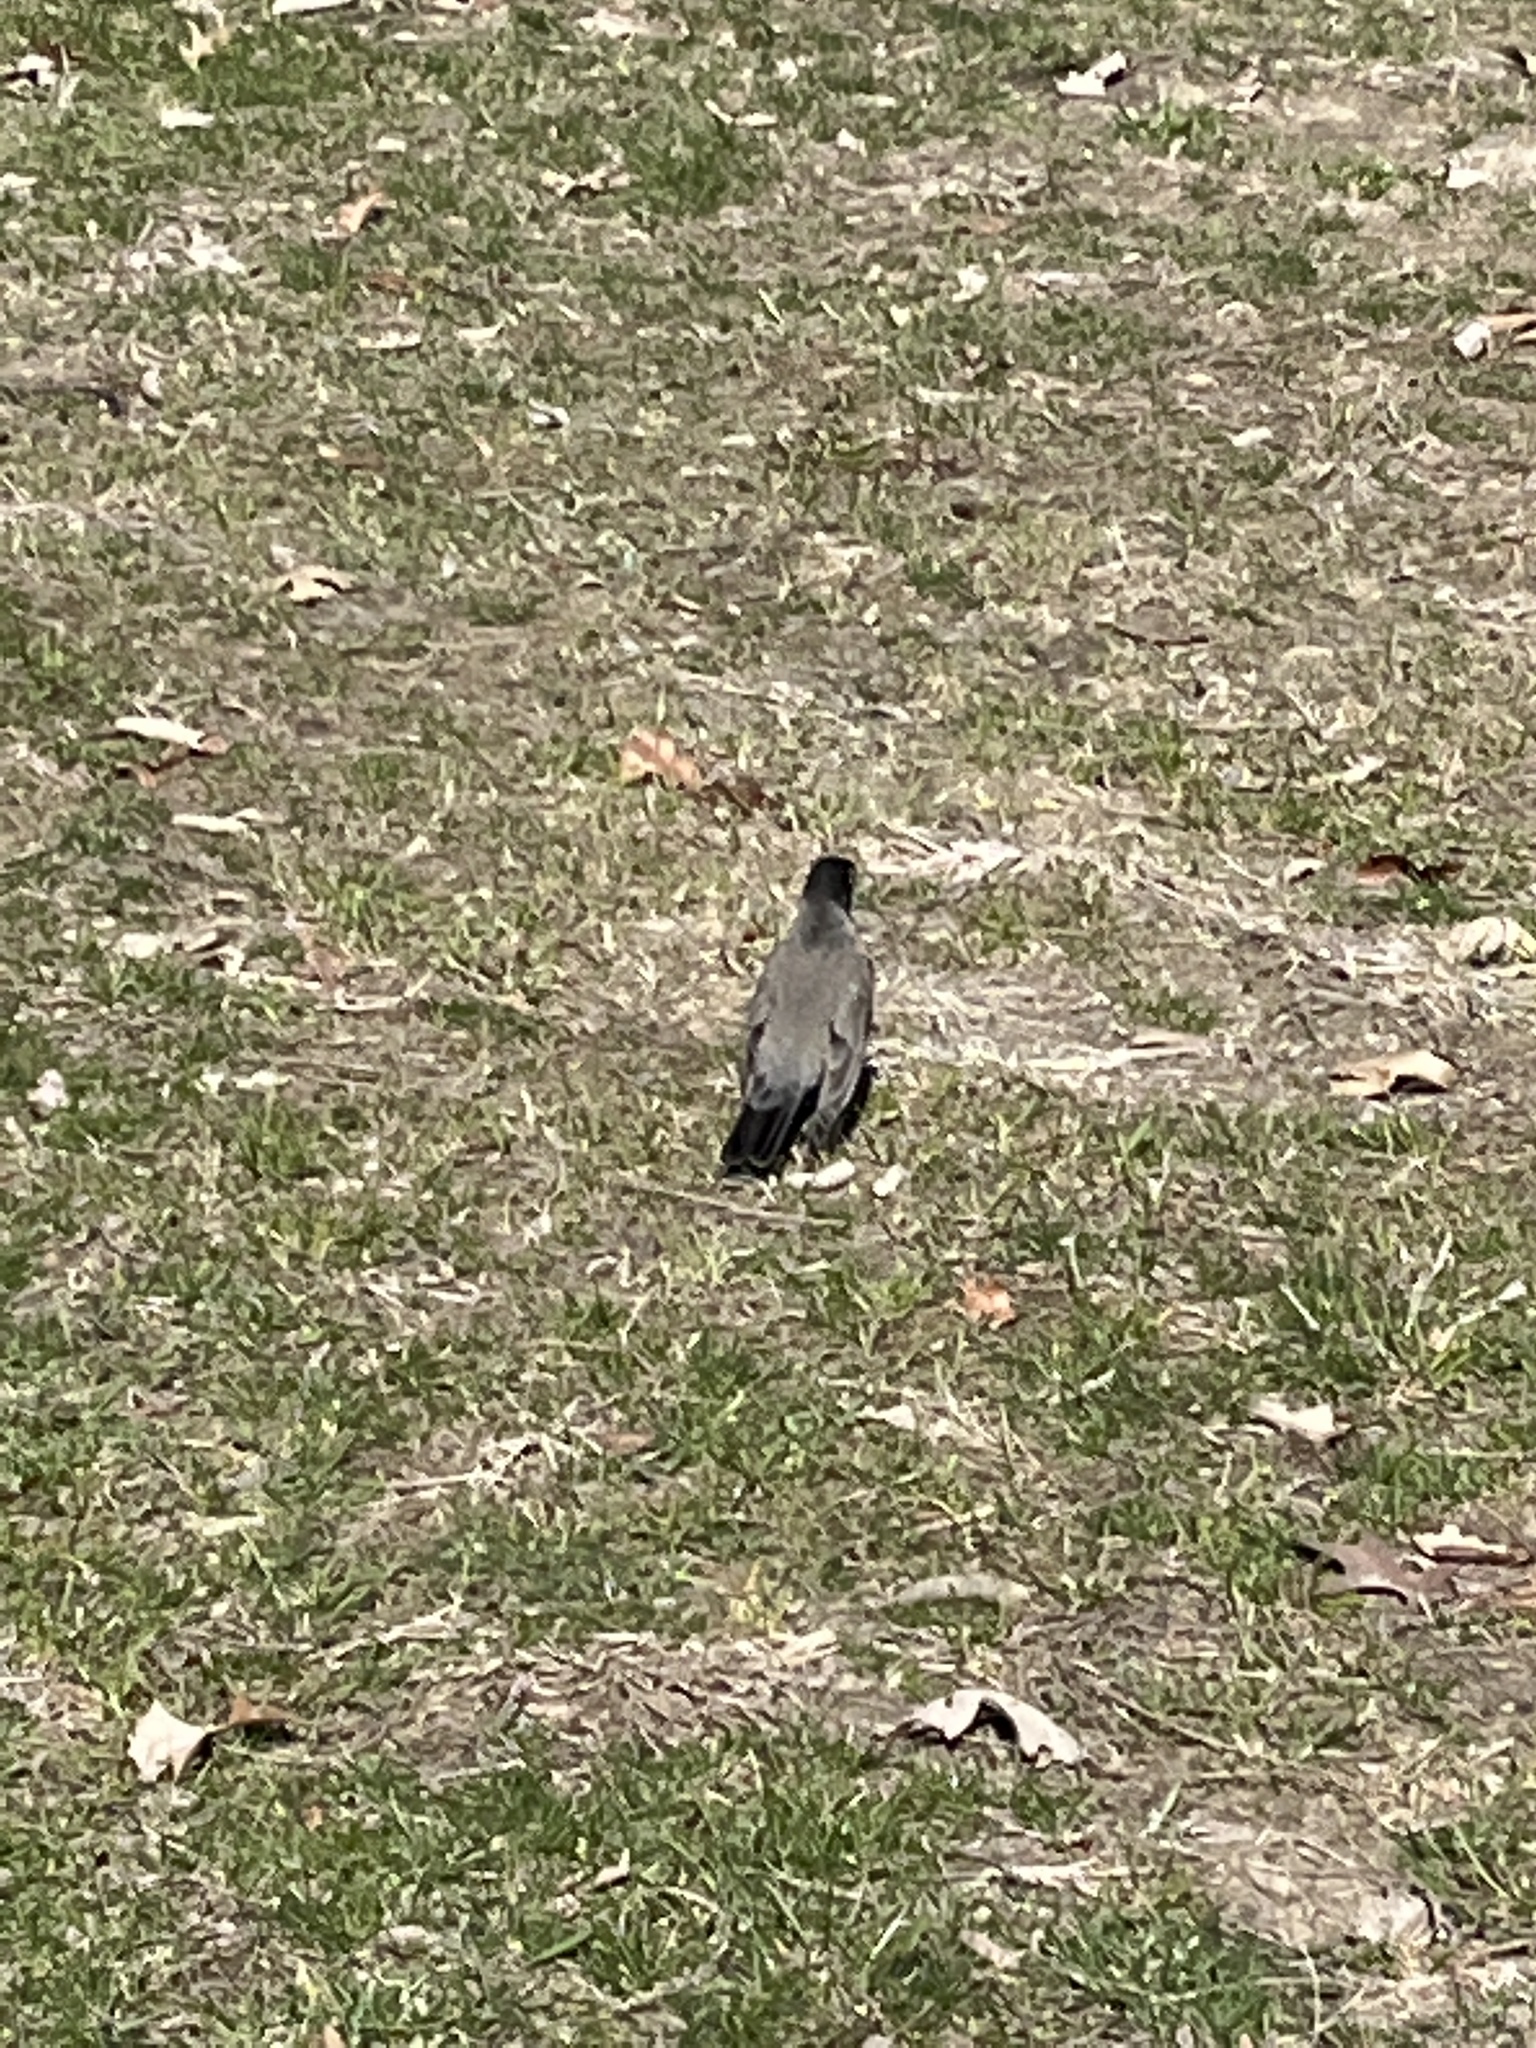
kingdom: Animalia
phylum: Chordata
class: Aves
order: Passeriformes
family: Turdidae
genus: Turdus
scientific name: Turdus migratorius
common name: American robin
